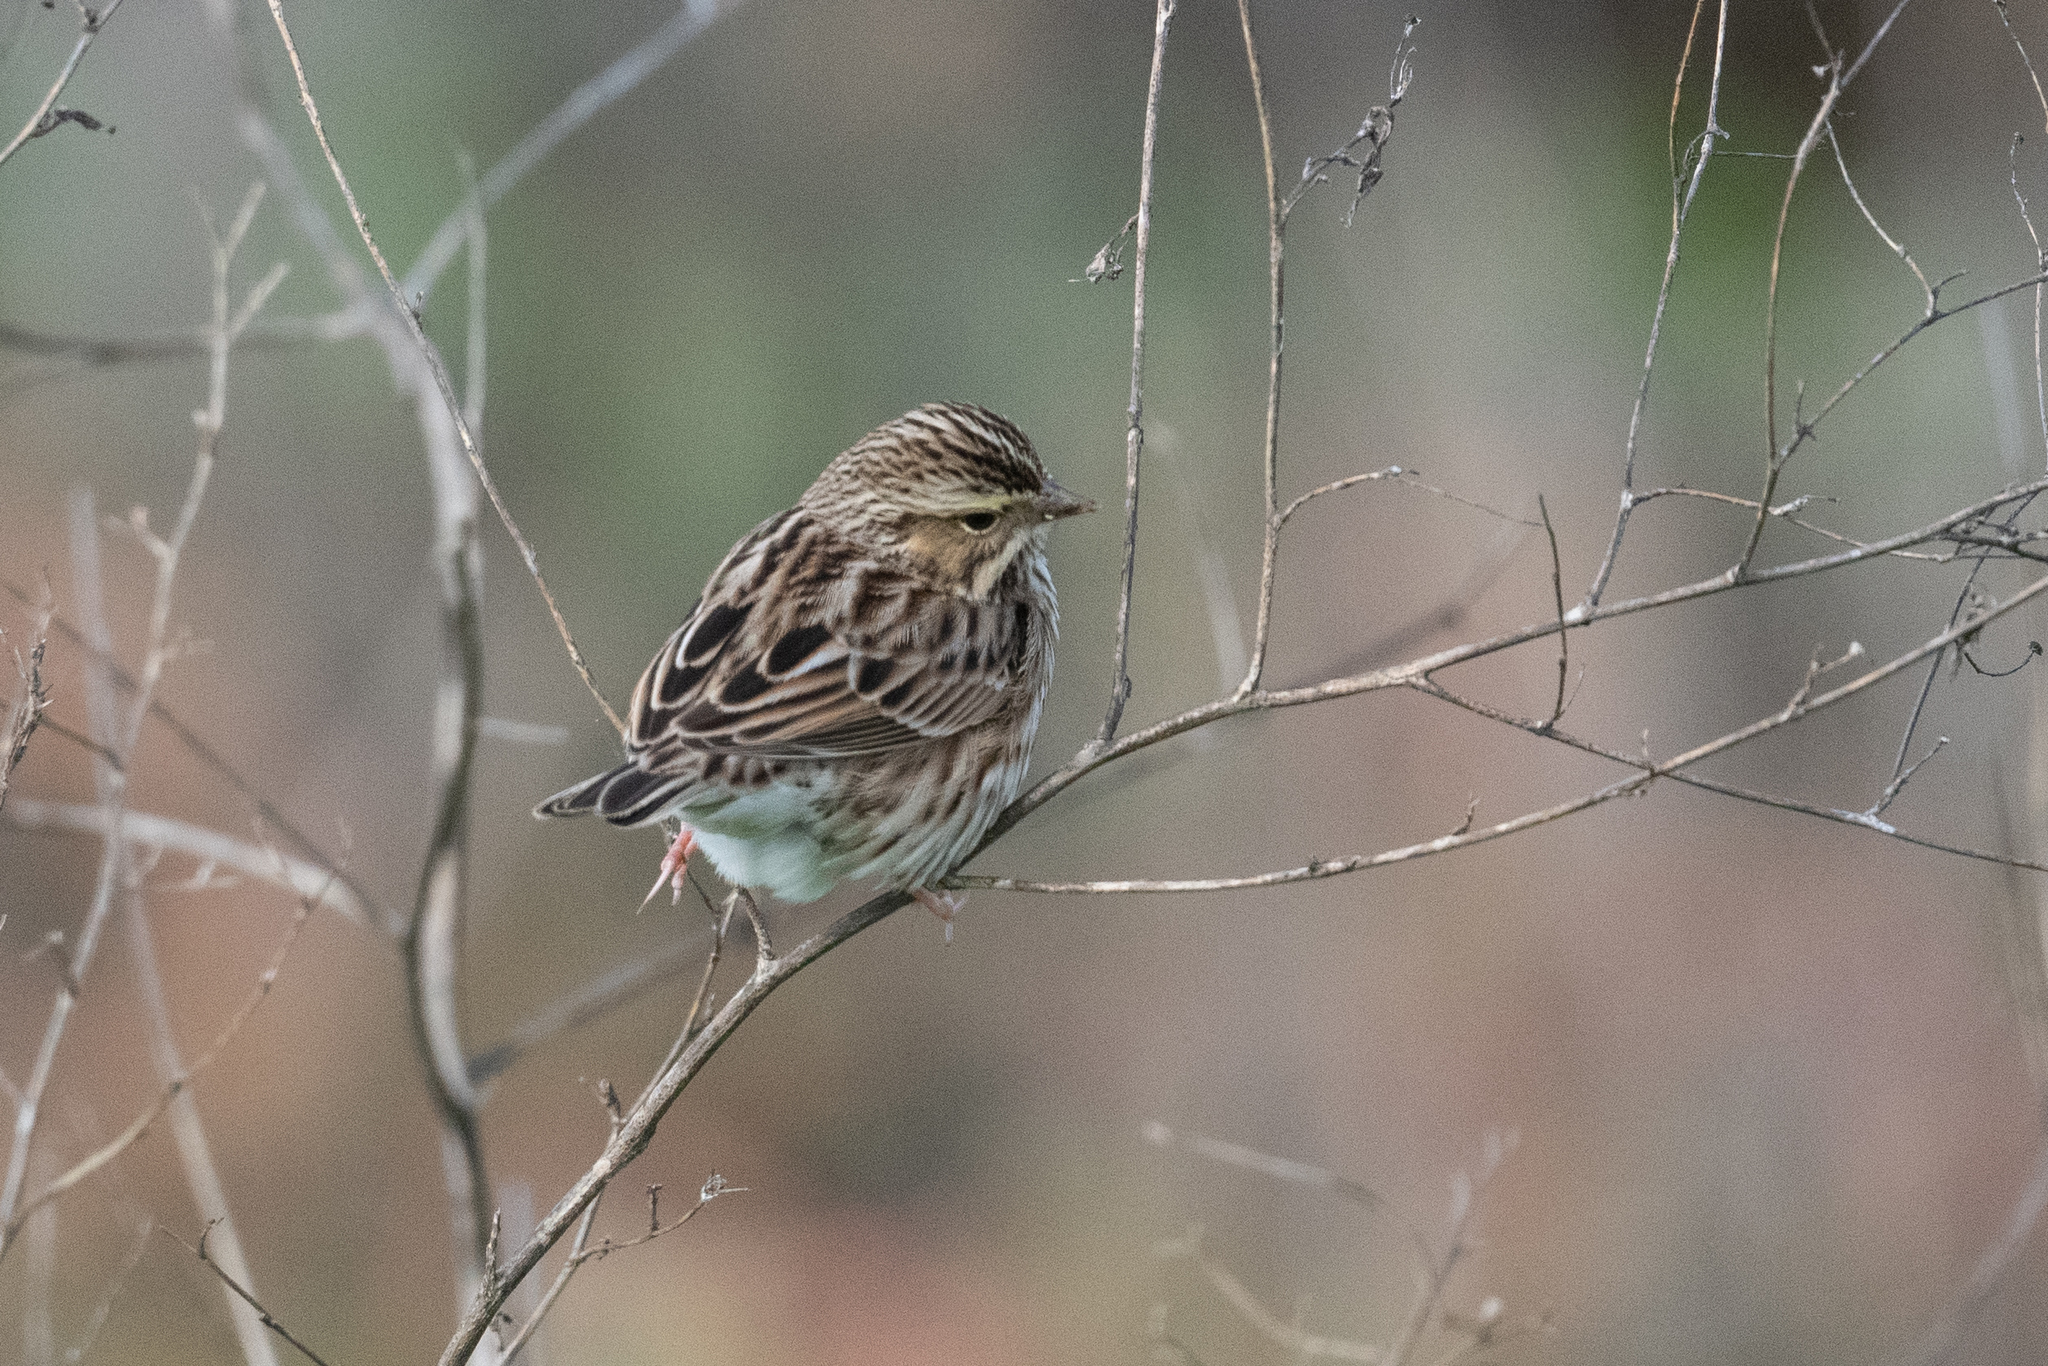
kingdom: Animalia
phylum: Chordata
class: Aves
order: Passeriformes
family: Passerellidae
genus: Passerculus
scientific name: Passerculus sandwichensis
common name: Savannah sparrow
